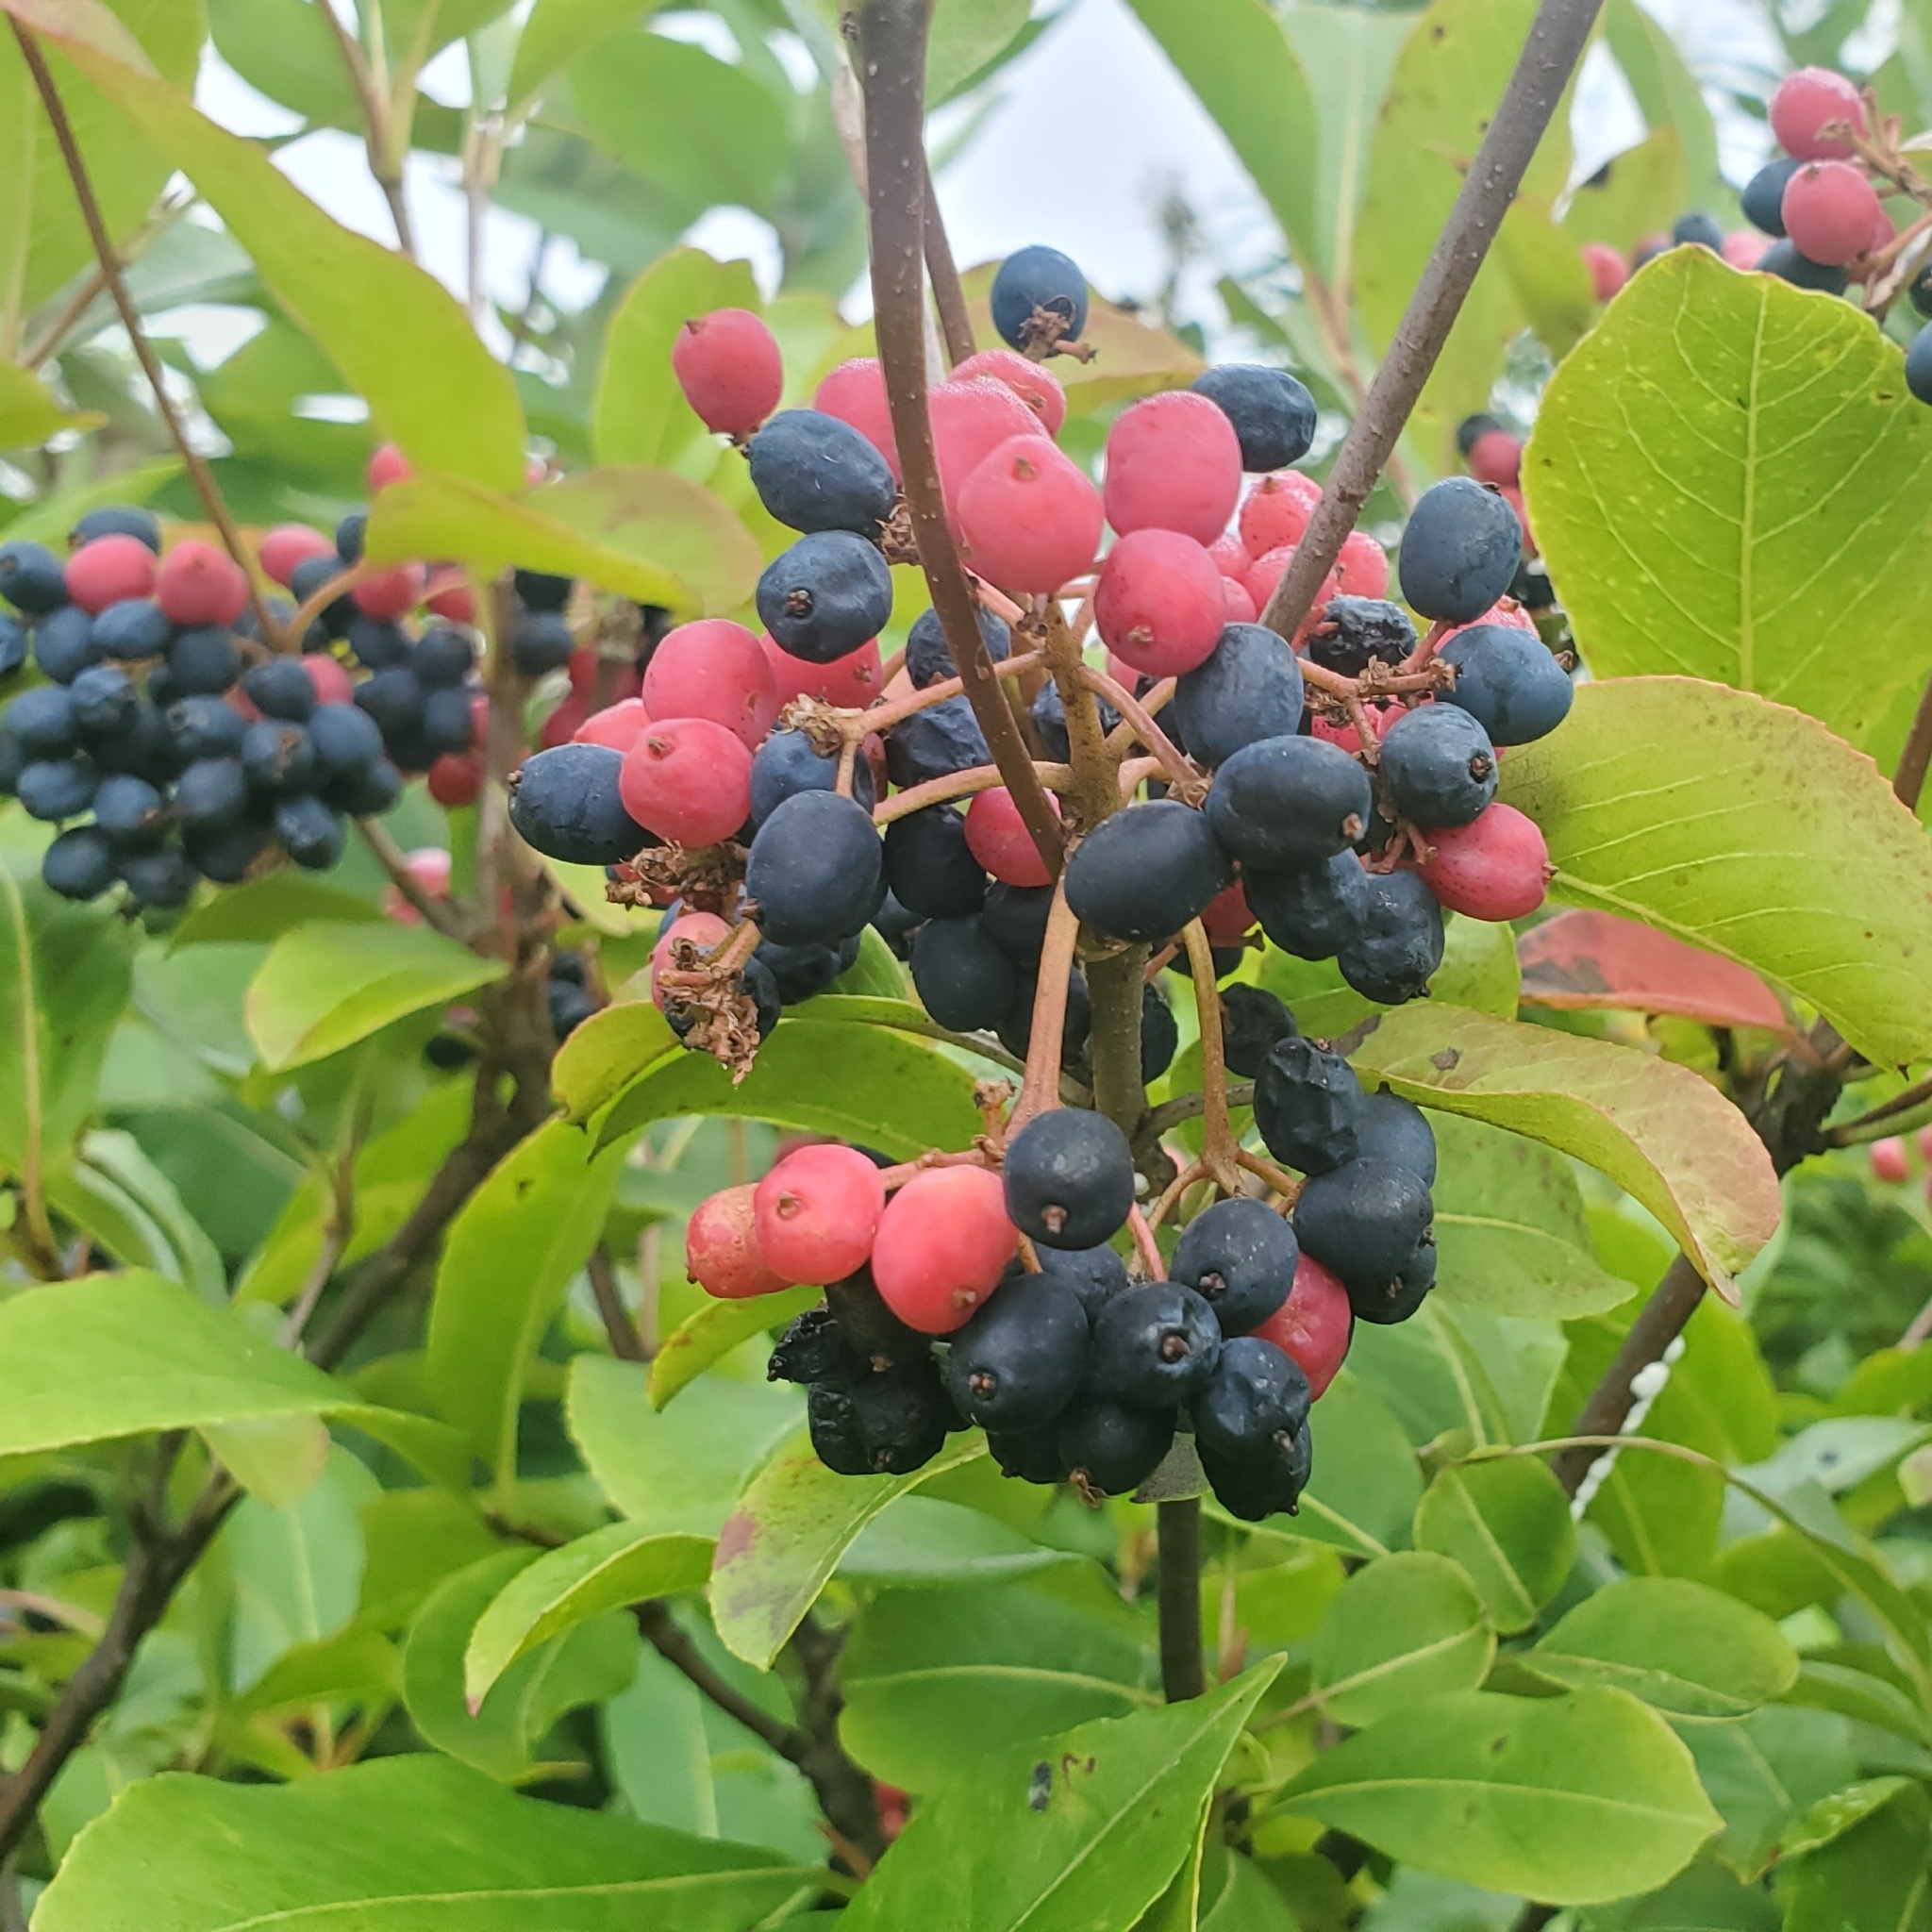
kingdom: Plantae
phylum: Tracheophyta
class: Magnoliopsida
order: Dipsacales
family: Viburnaceae
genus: Viburnum
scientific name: Viburnum cassinoides
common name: Swamp haw
